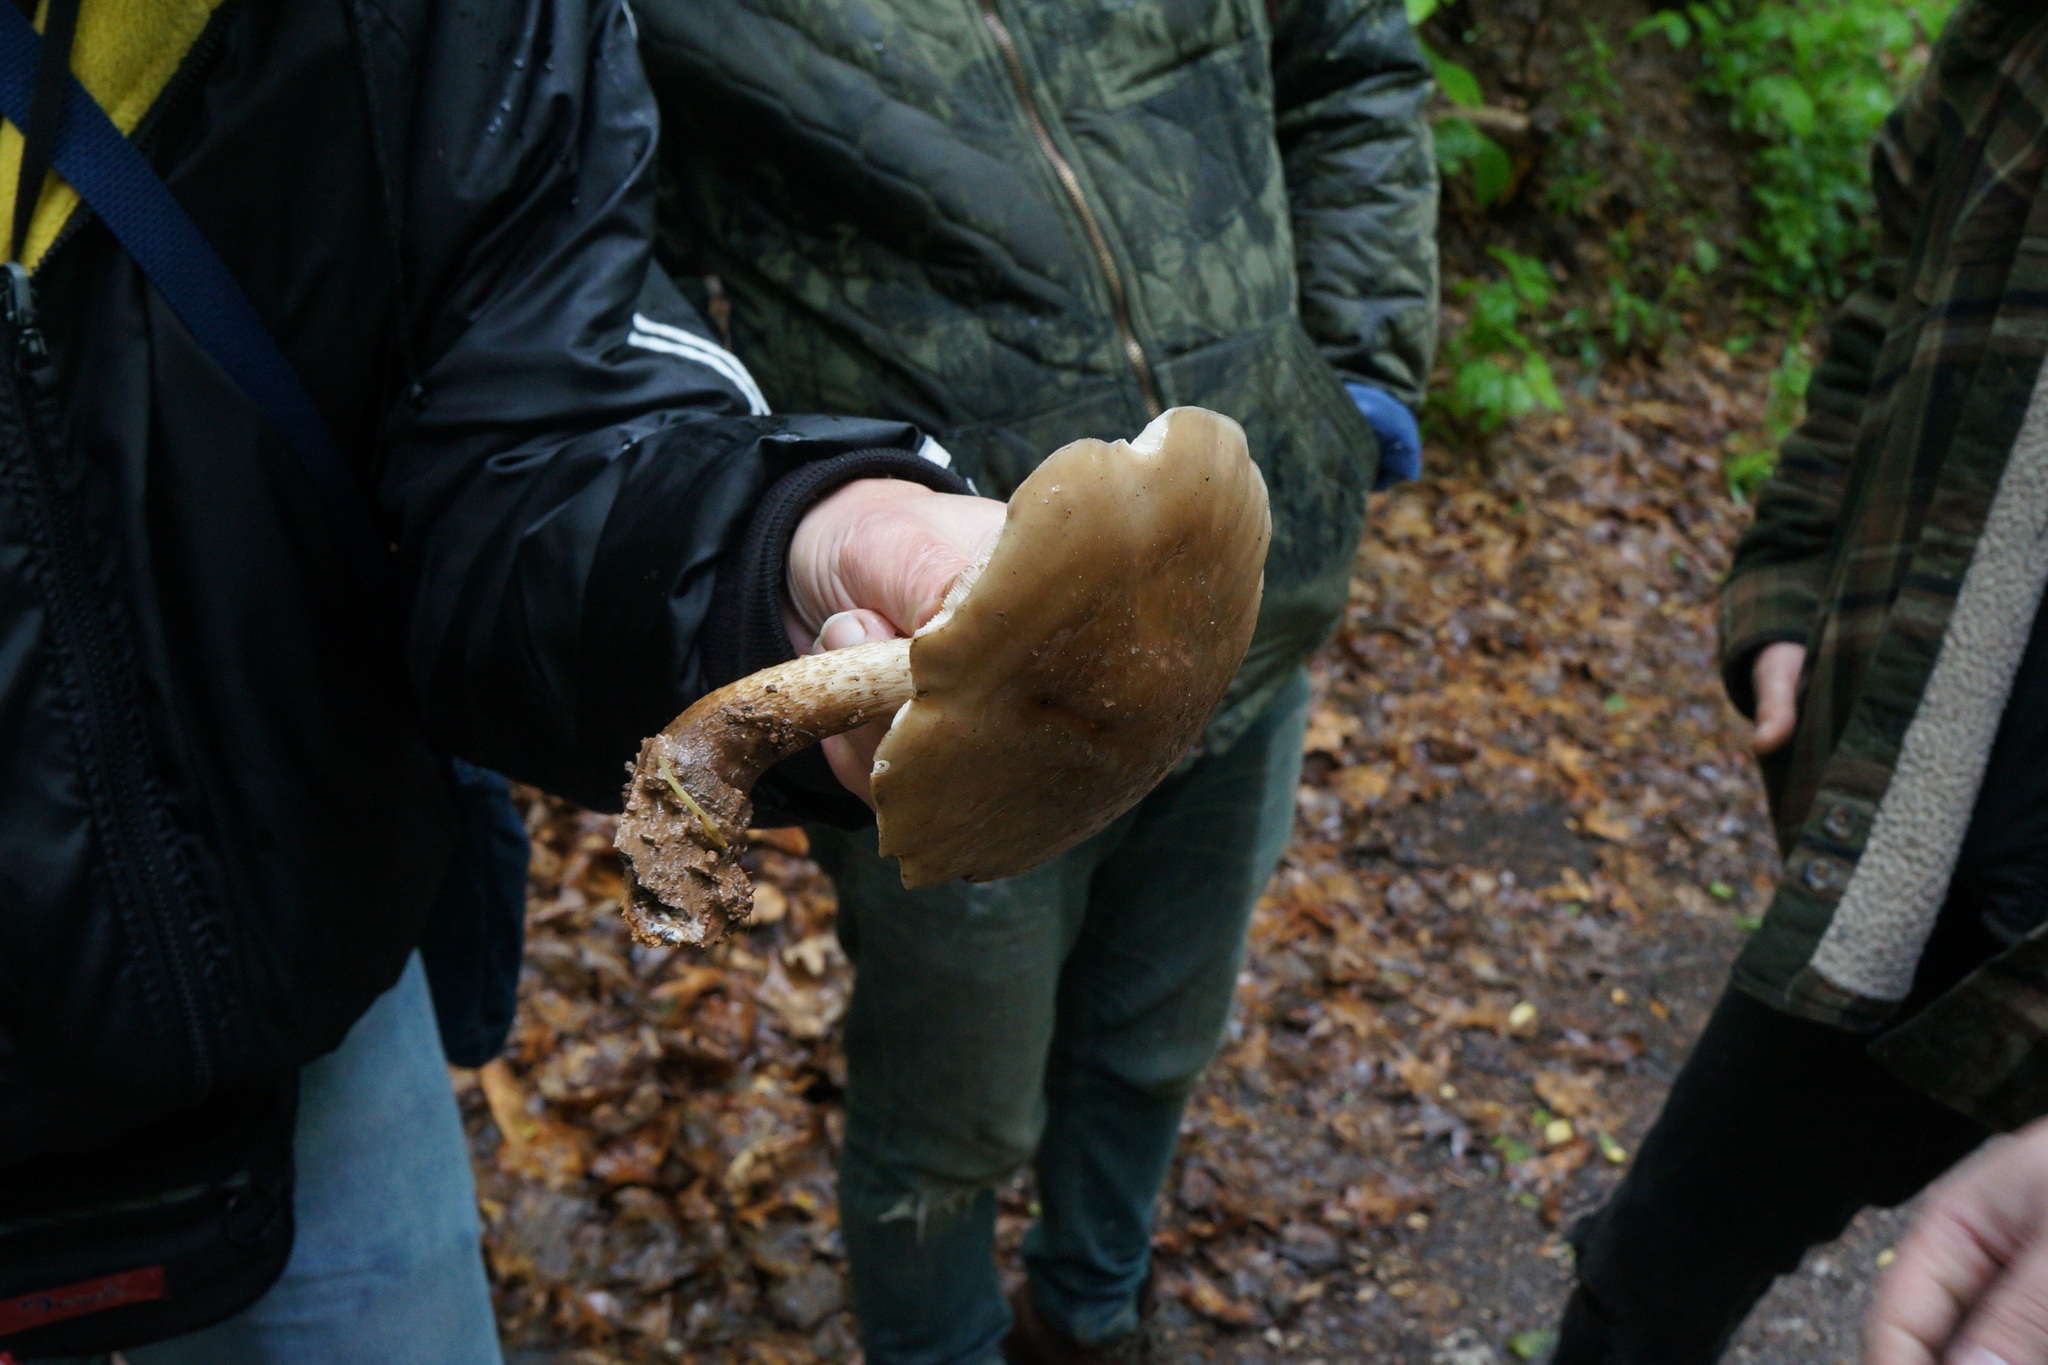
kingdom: Fungi
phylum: Basidiomycota
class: Agaricomycetes
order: Agaricales
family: Pluteaceae
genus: Pluteus
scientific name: Pluteus cervinus
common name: Deer shield
